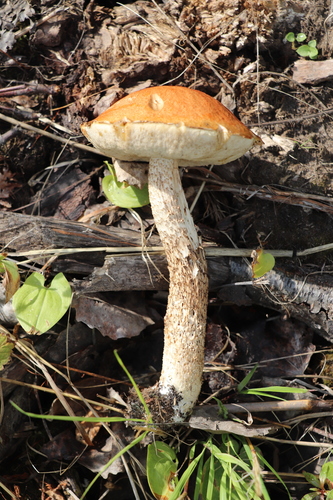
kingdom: Fungi
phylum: Basidiomycota
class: Agaricomycetes
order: Boletales
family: Boletaceae
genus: Leccinum
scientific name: Leccinum albostipitatum
